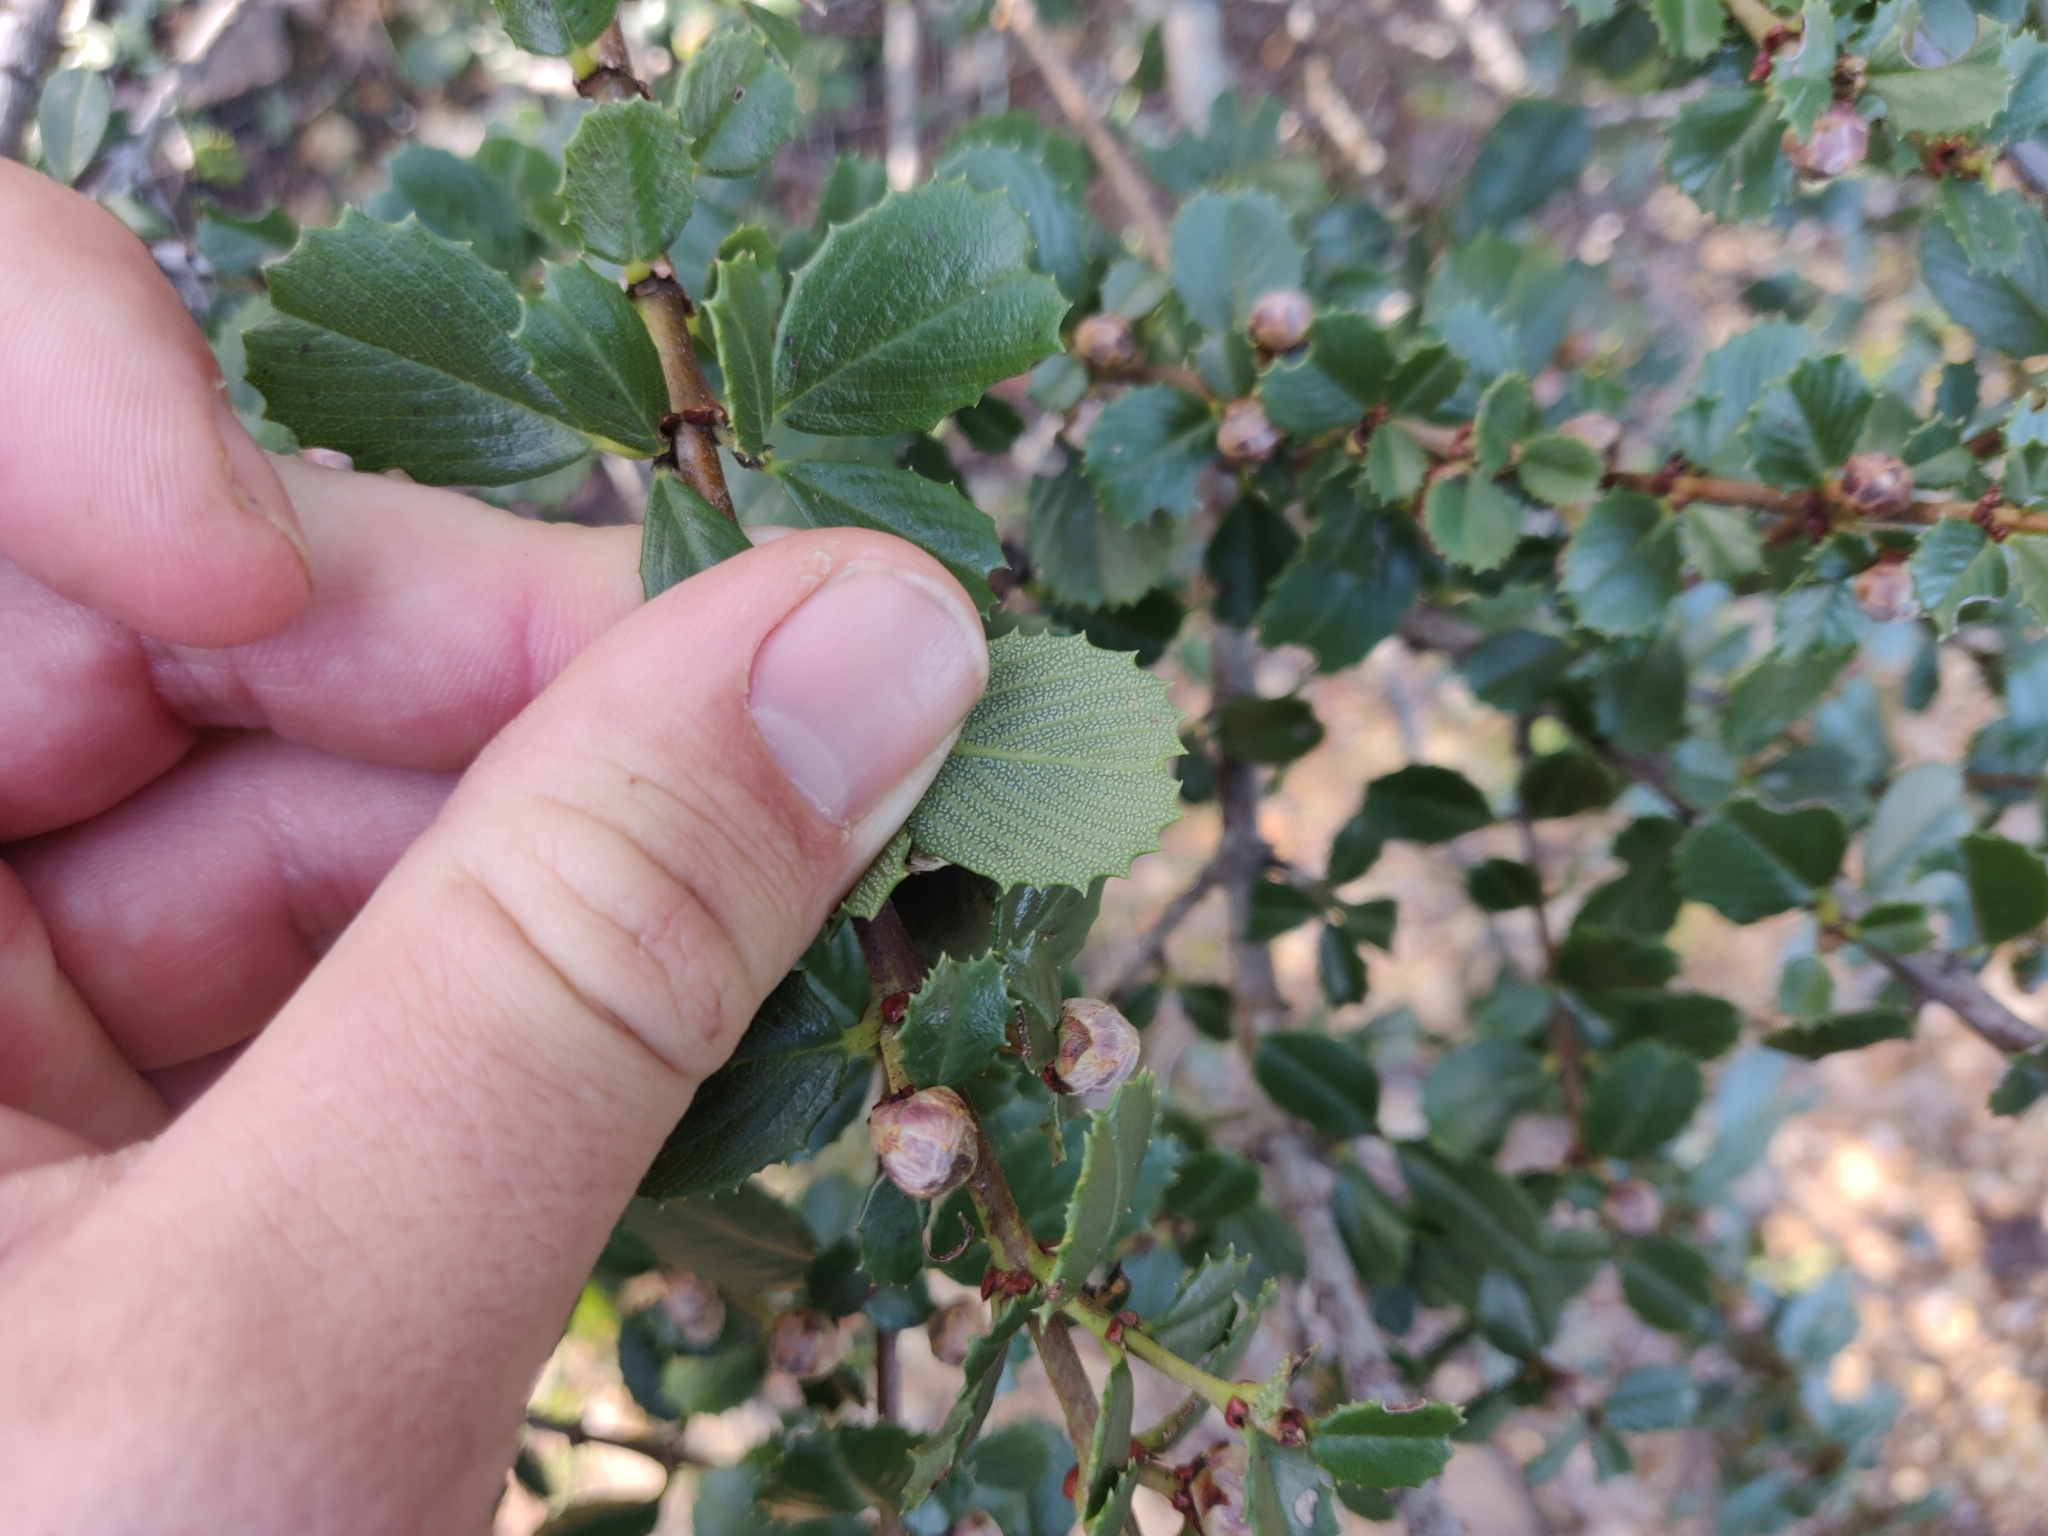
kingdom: Plantae
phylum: Tracheophyta
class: Magnoliopsida
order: Rosales
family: Rhamnaceae
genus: Ceanothus
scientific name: Ceanothus gloriosus
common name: Point reyes ceanothus
